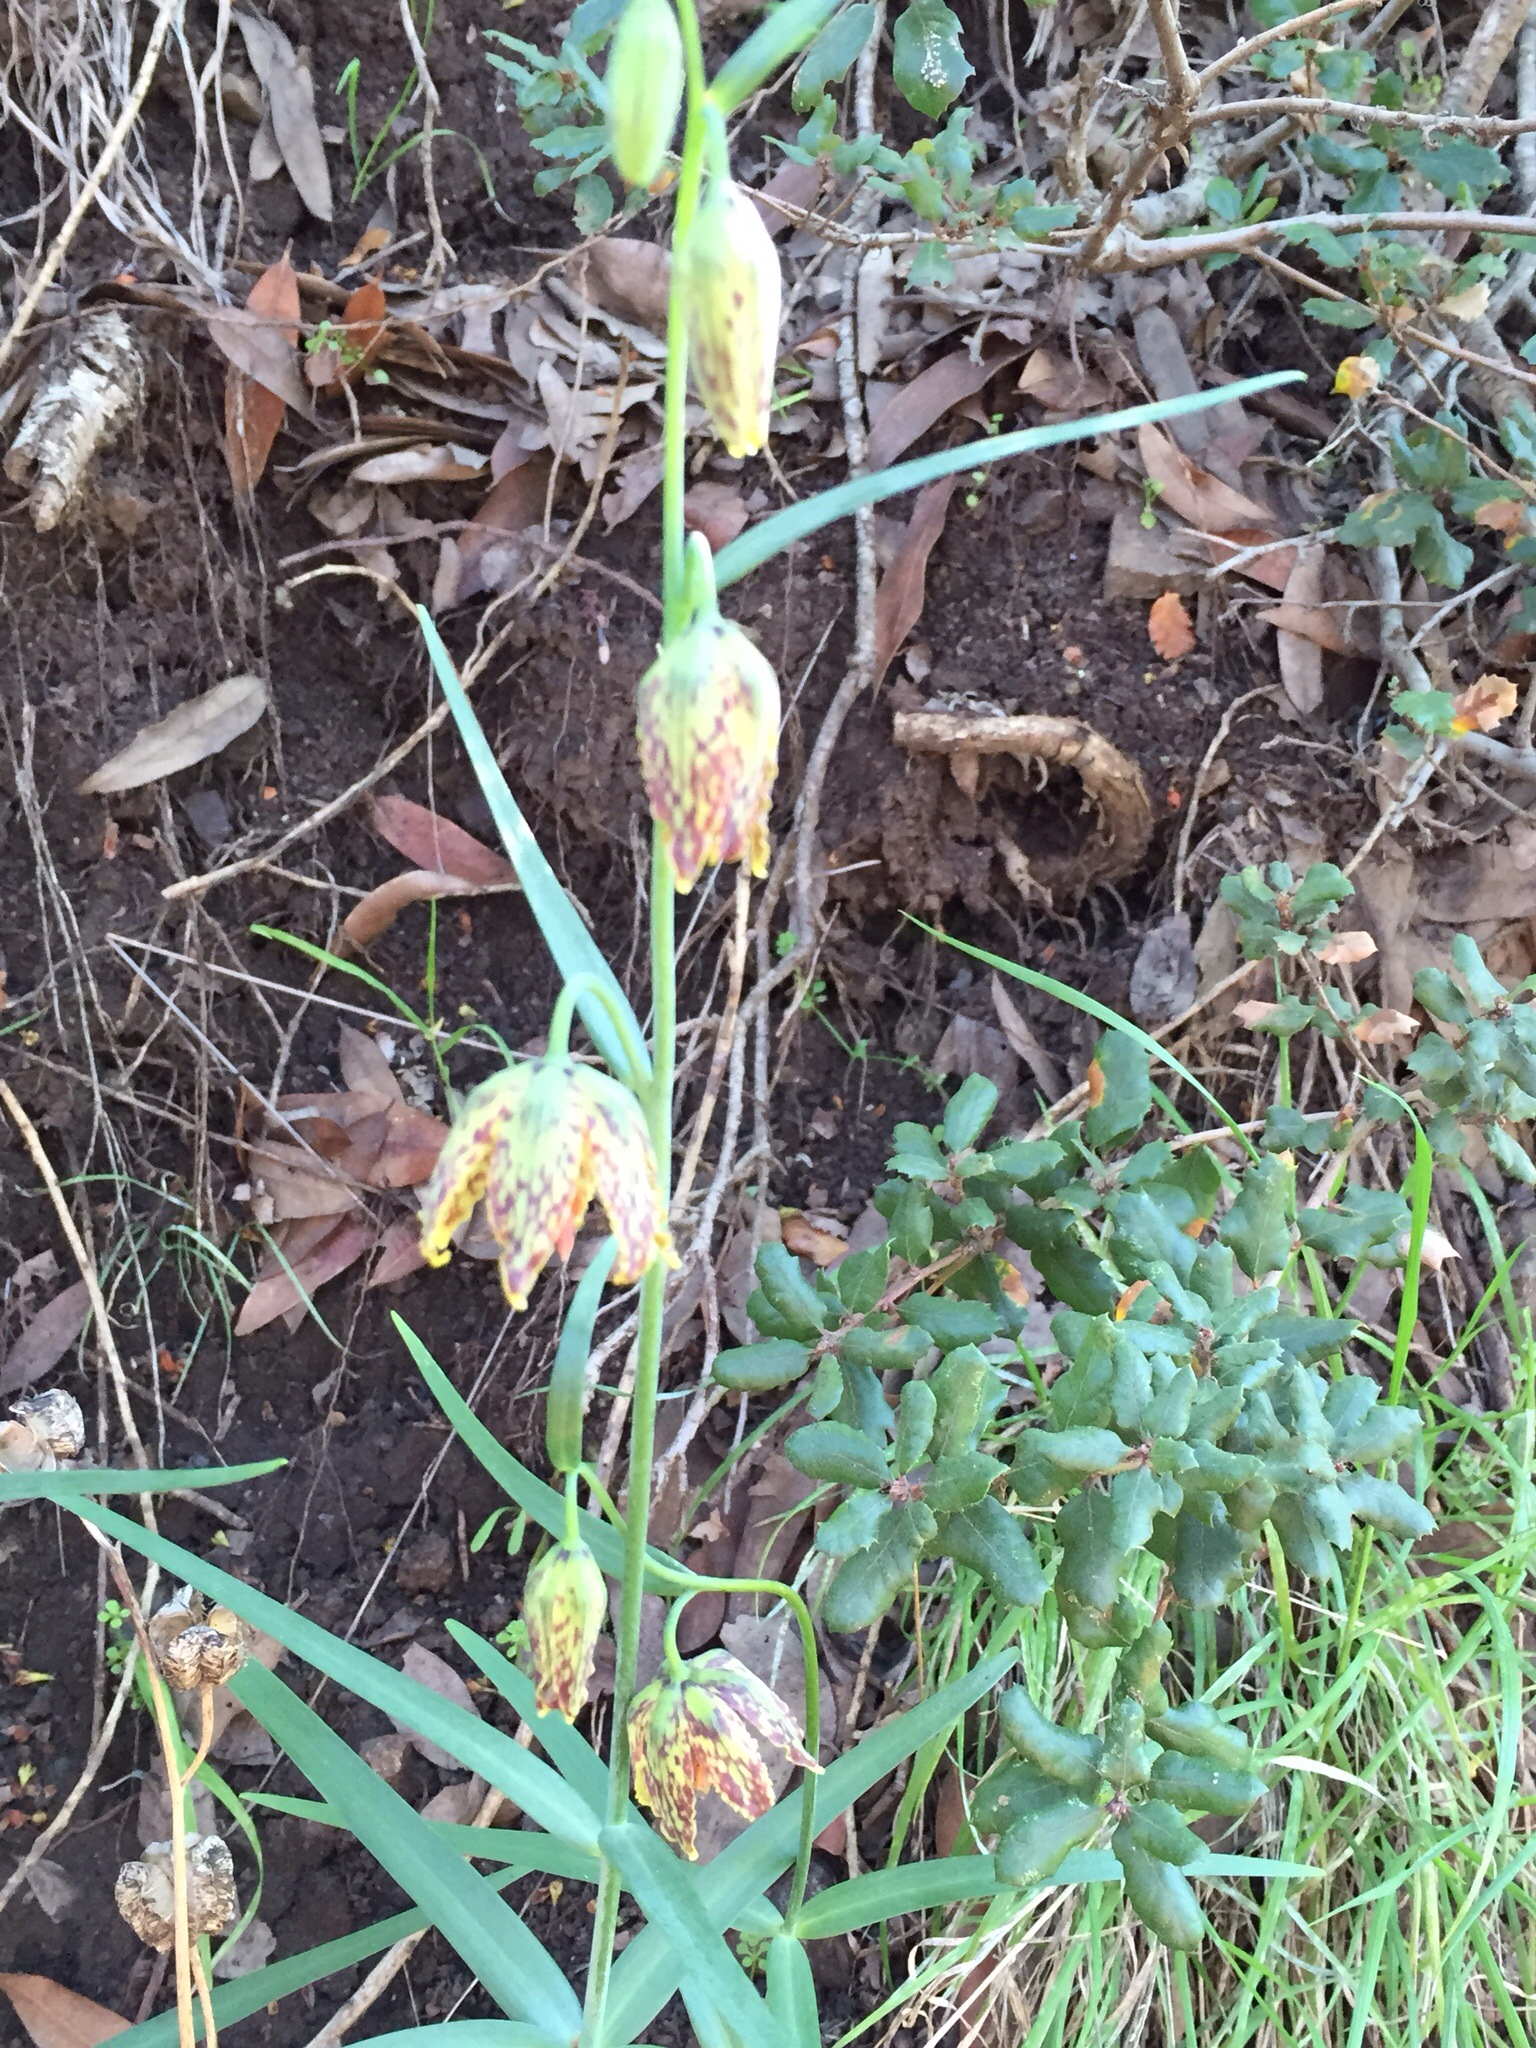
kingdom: Plantae
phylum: Tracheophyta
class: Liliopsida
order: Liliales
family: Liliaceae
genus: Fritillaria
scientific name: Fritillaria affinis
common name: Ojai fritillary
